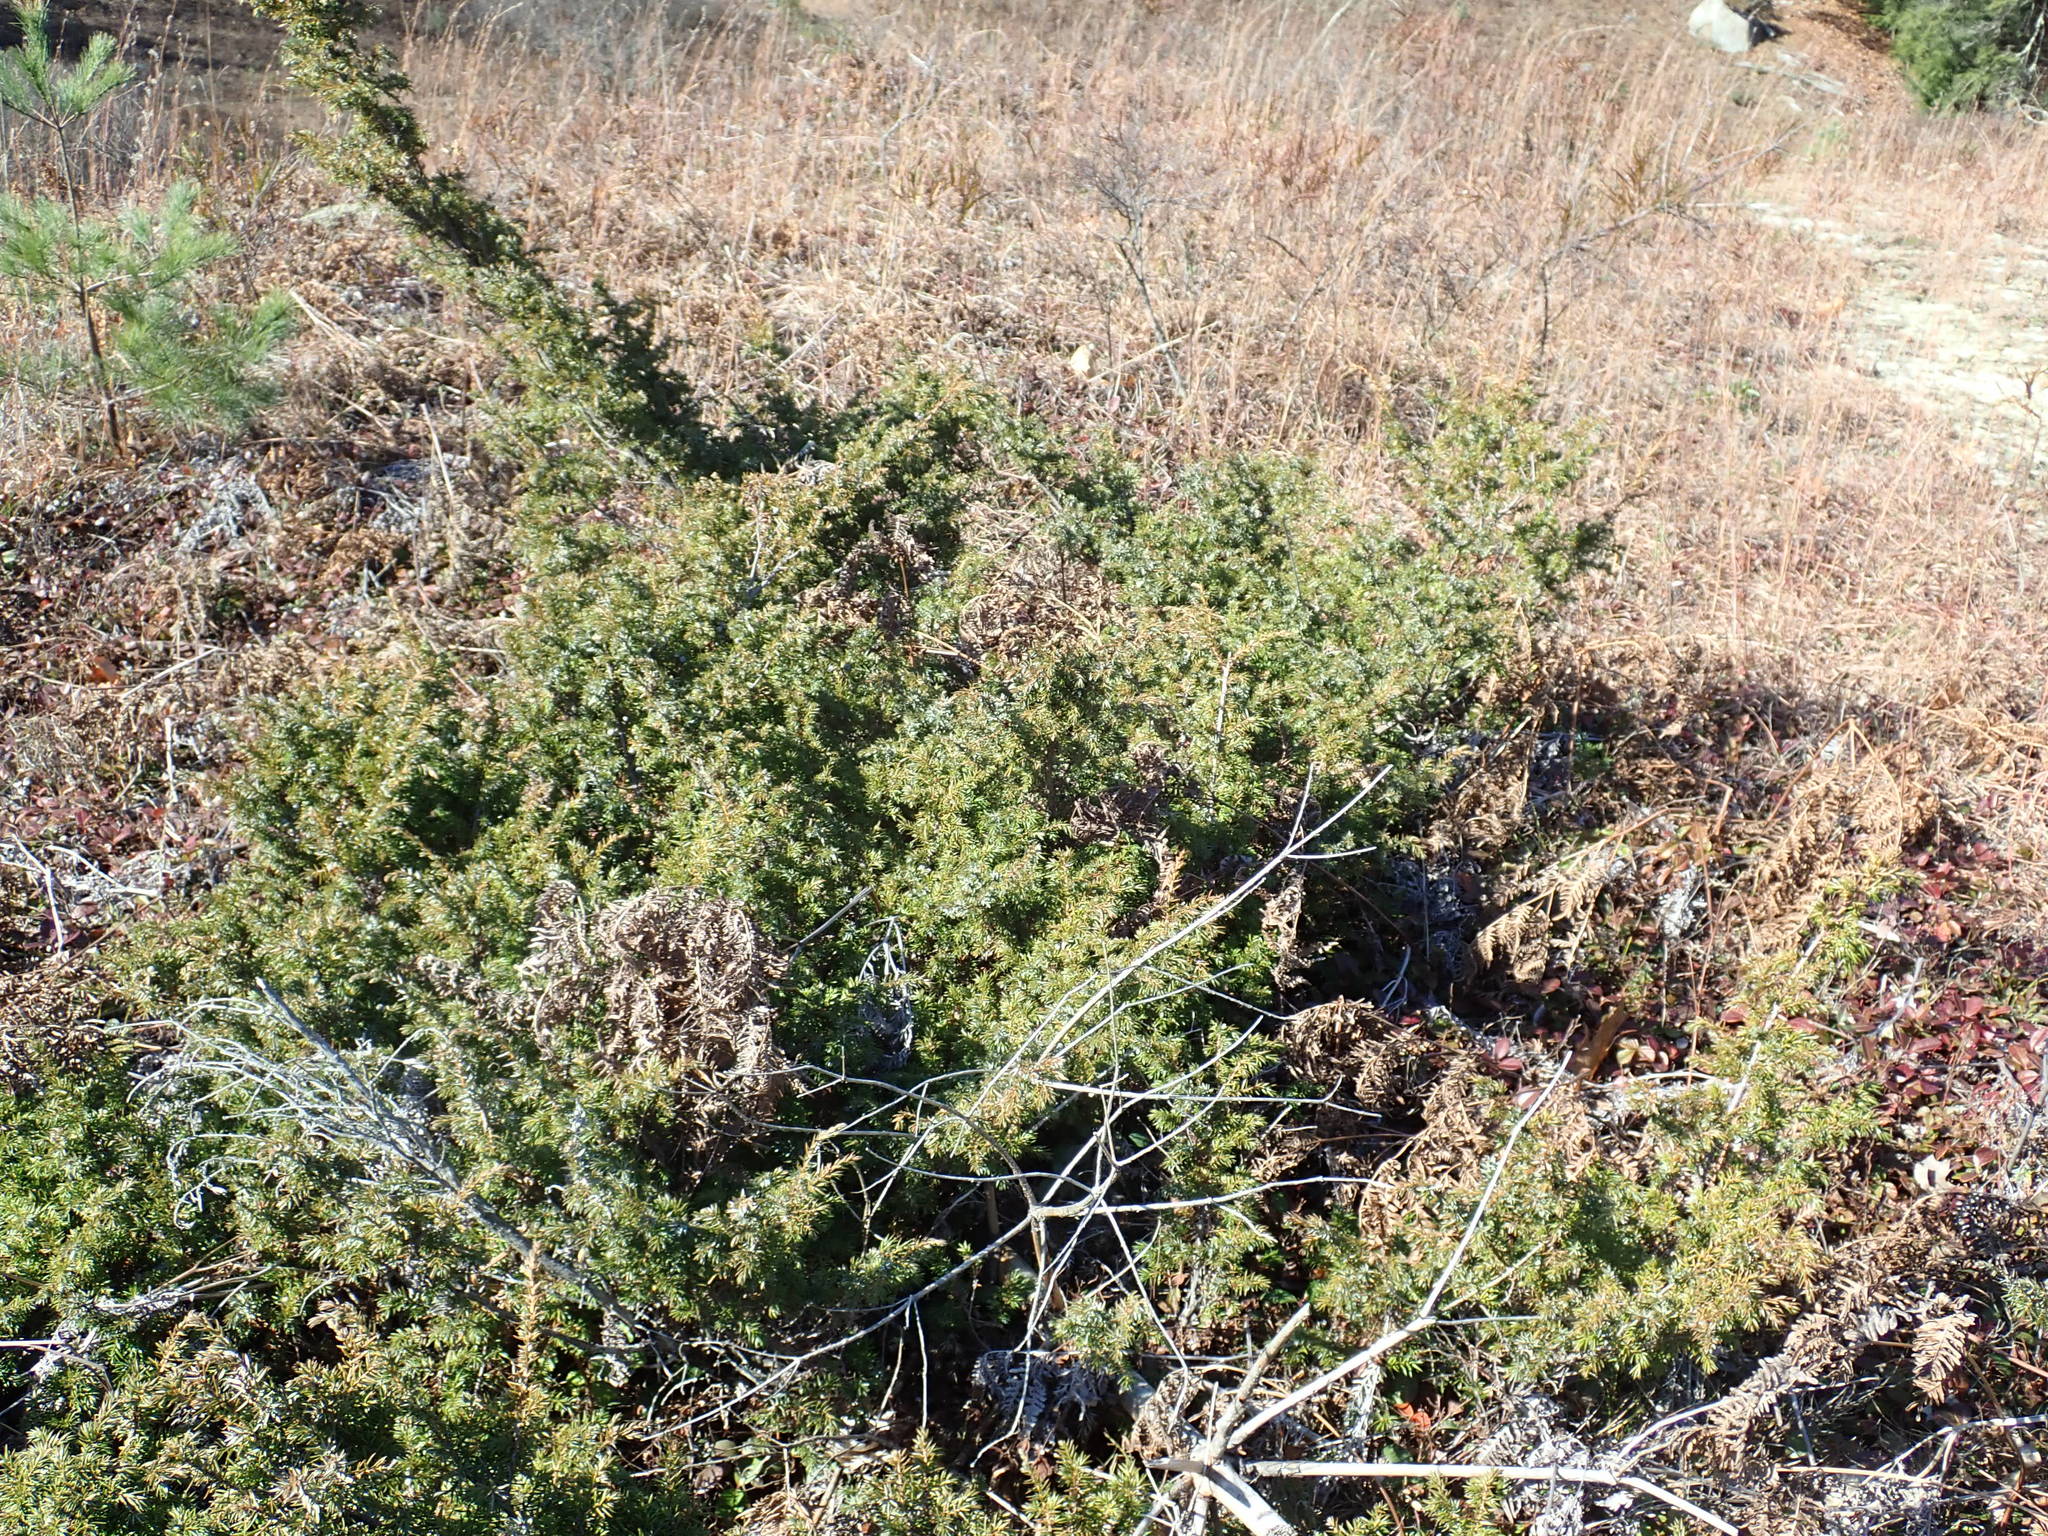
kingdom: Plantae
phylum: Tracheophyta
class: Pinopsida
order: Pinales
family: Cupressaceae
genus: Juniperus
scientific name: Juniperus communis
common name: Common juniper
